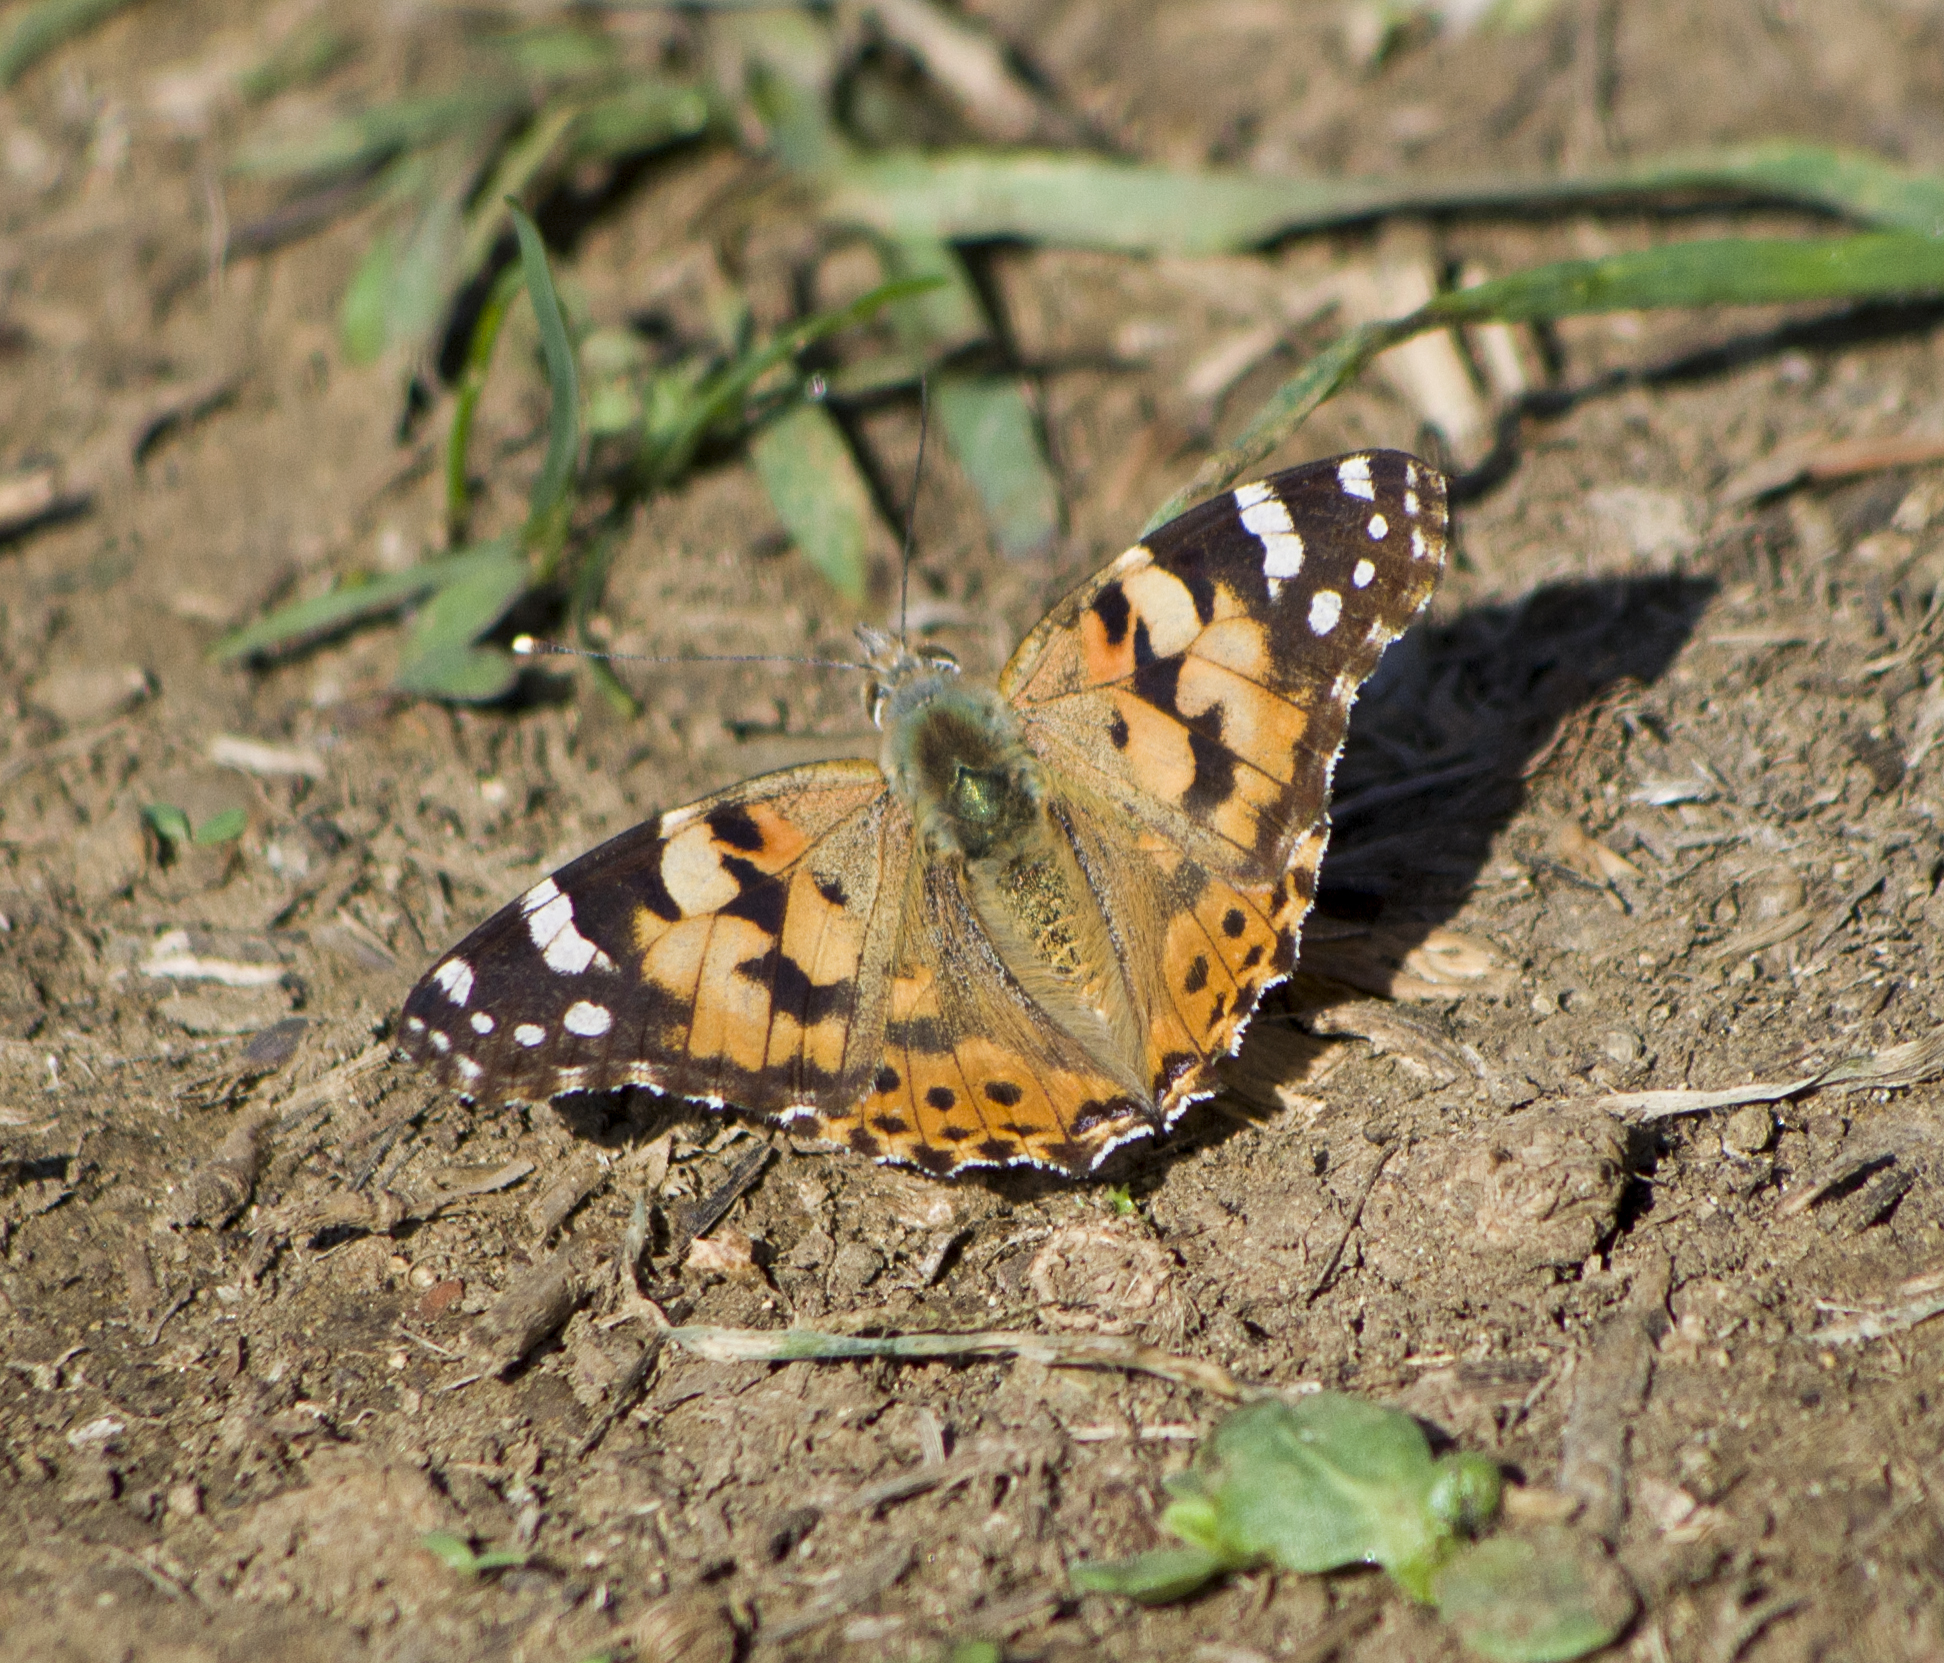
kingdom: Animalia
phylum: Arthropoda
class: Insecta
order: Lepidoptera
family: Nymphalidae
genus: Vanessa
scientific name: Vanessa cardui
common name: Painted lady
